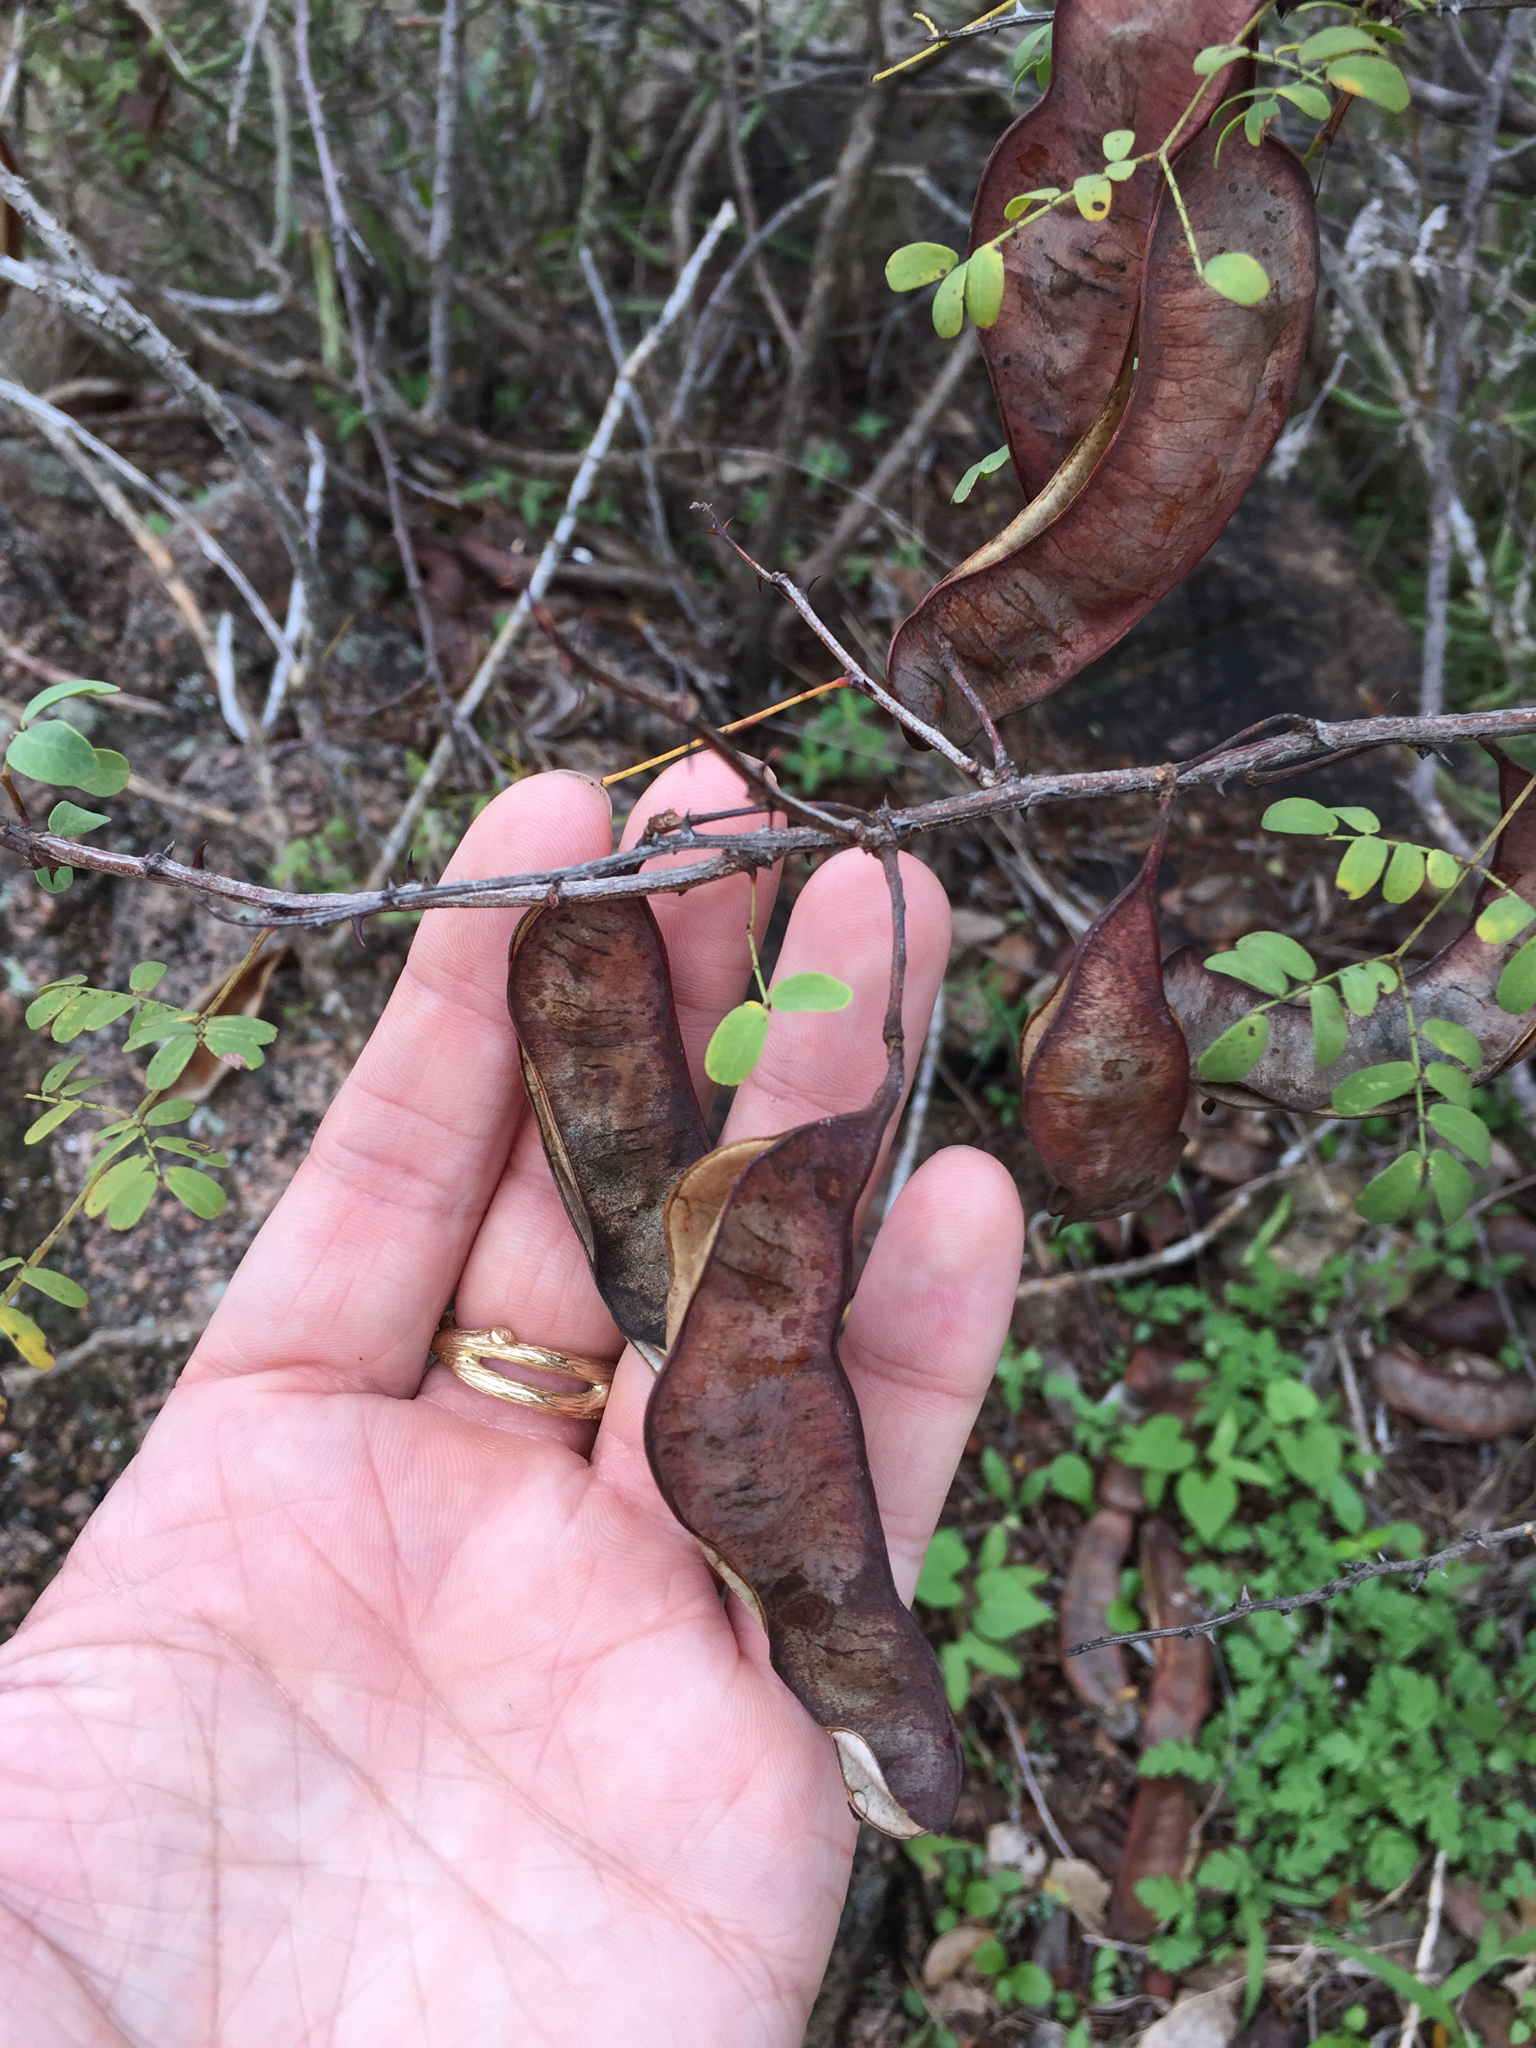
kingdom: Plantae
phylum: Tracheophyta
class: Magnoliopsida
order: Fabales
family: Fabaceae
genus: Senegalia
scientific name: Senegalia roemeriana
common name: Roemer's acacia
